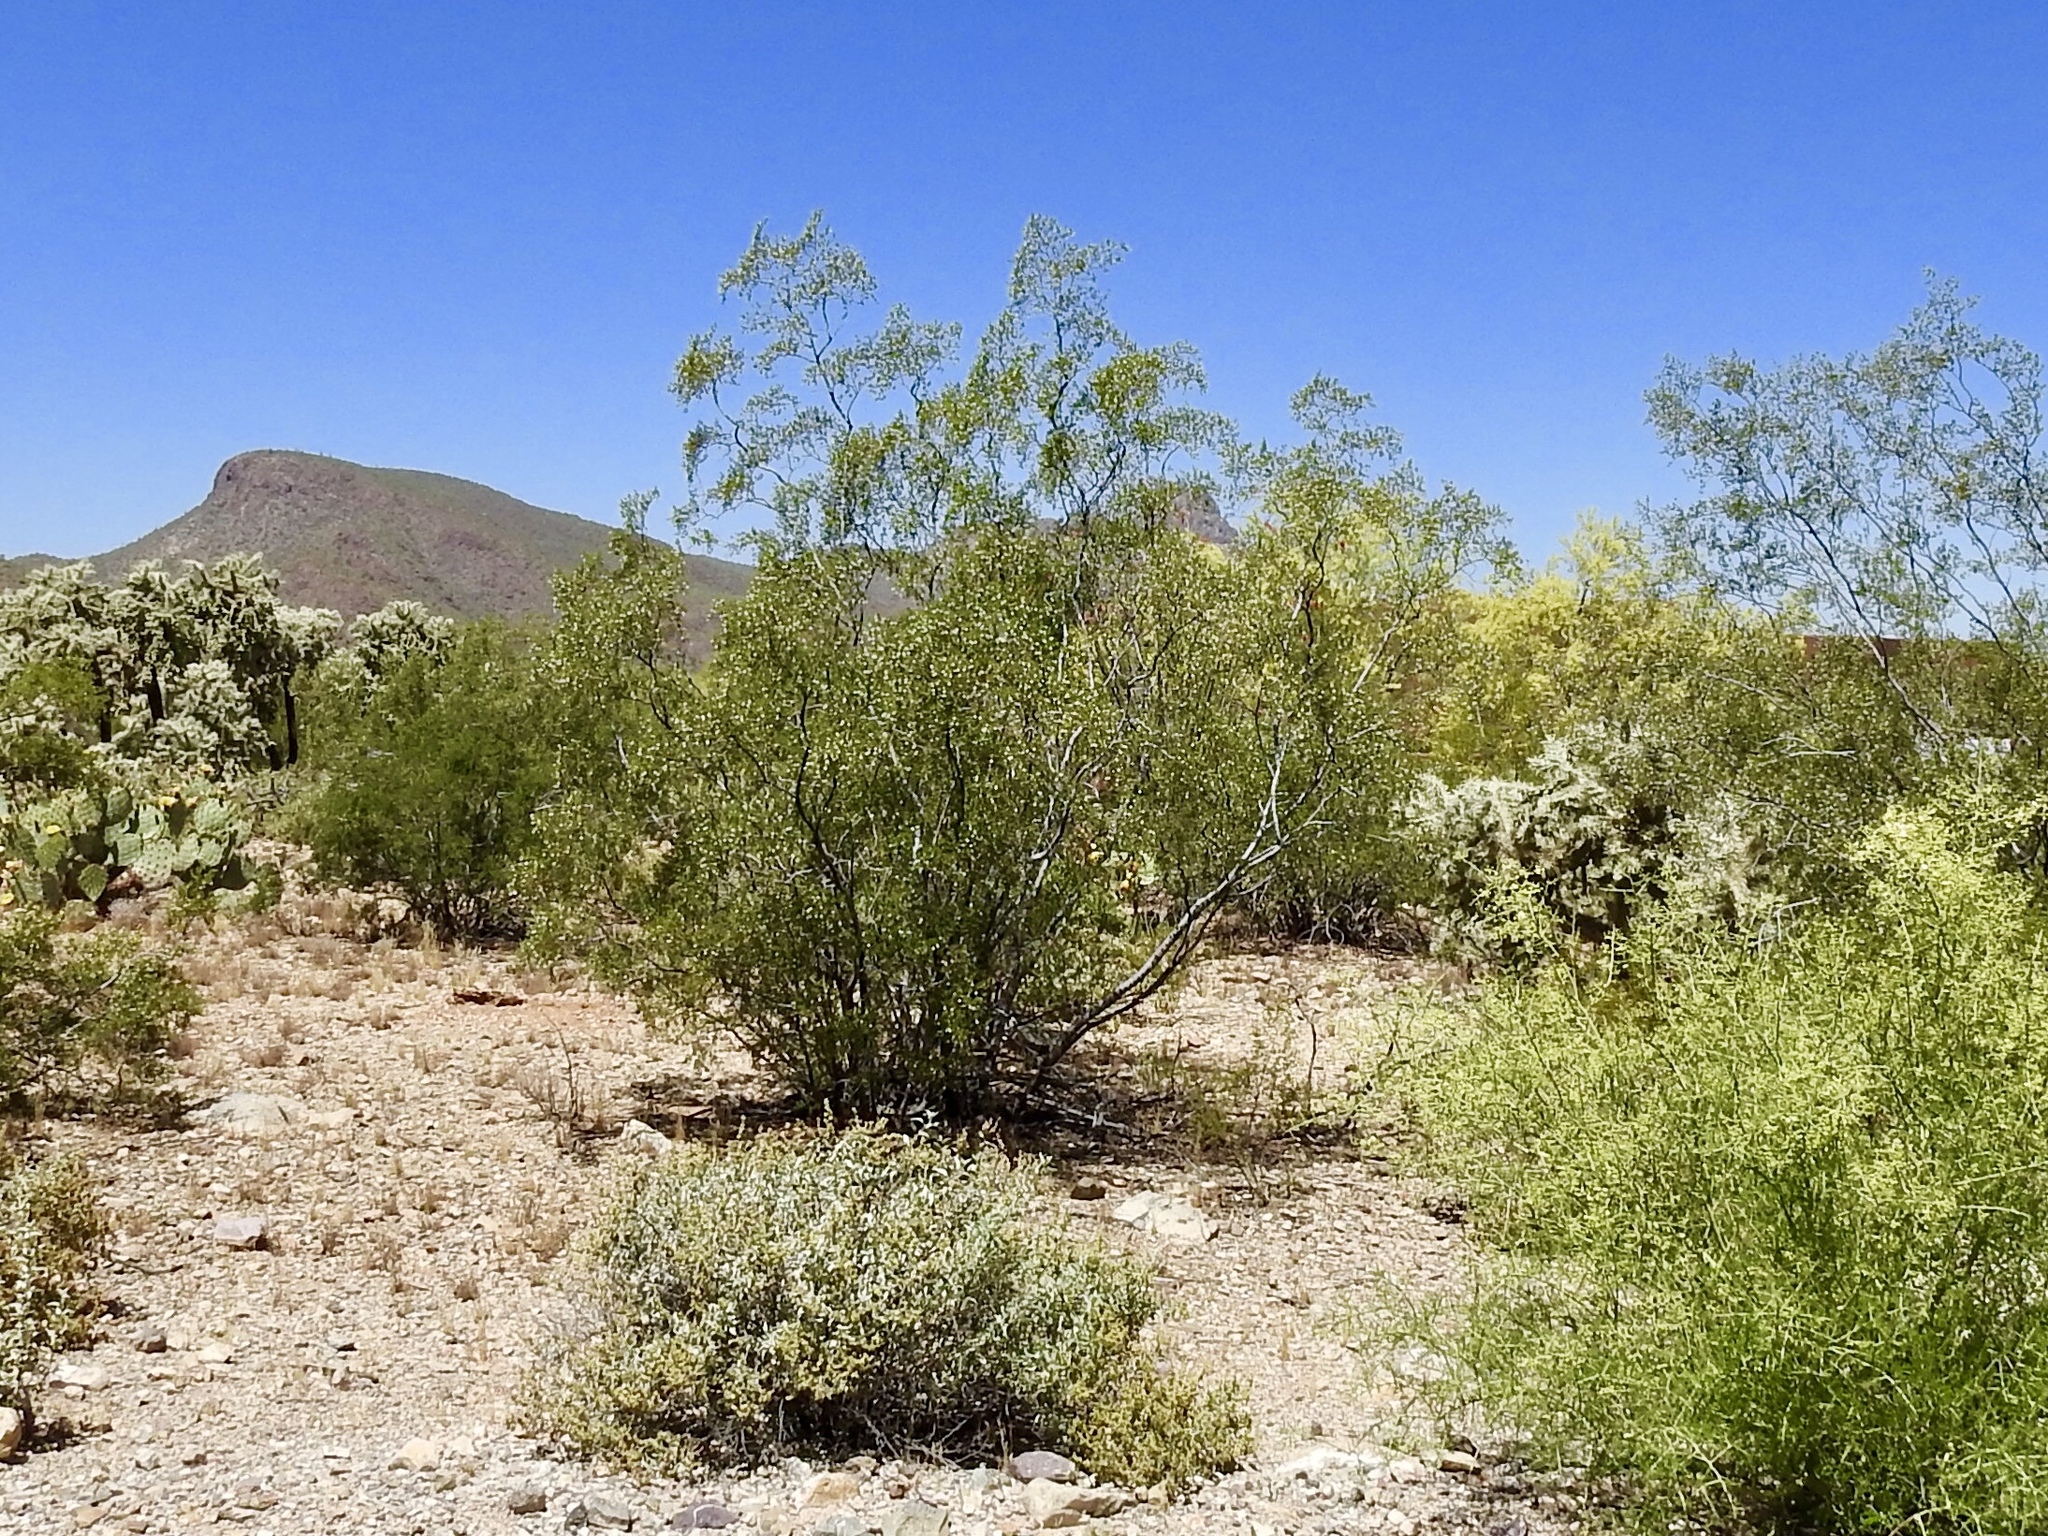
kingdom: Plantae
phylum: Tracheophyta
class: Magnoliopsida
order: Zygophyllales
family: Zygophyllaceae
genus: Larrea
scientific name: Larrea tridentata
